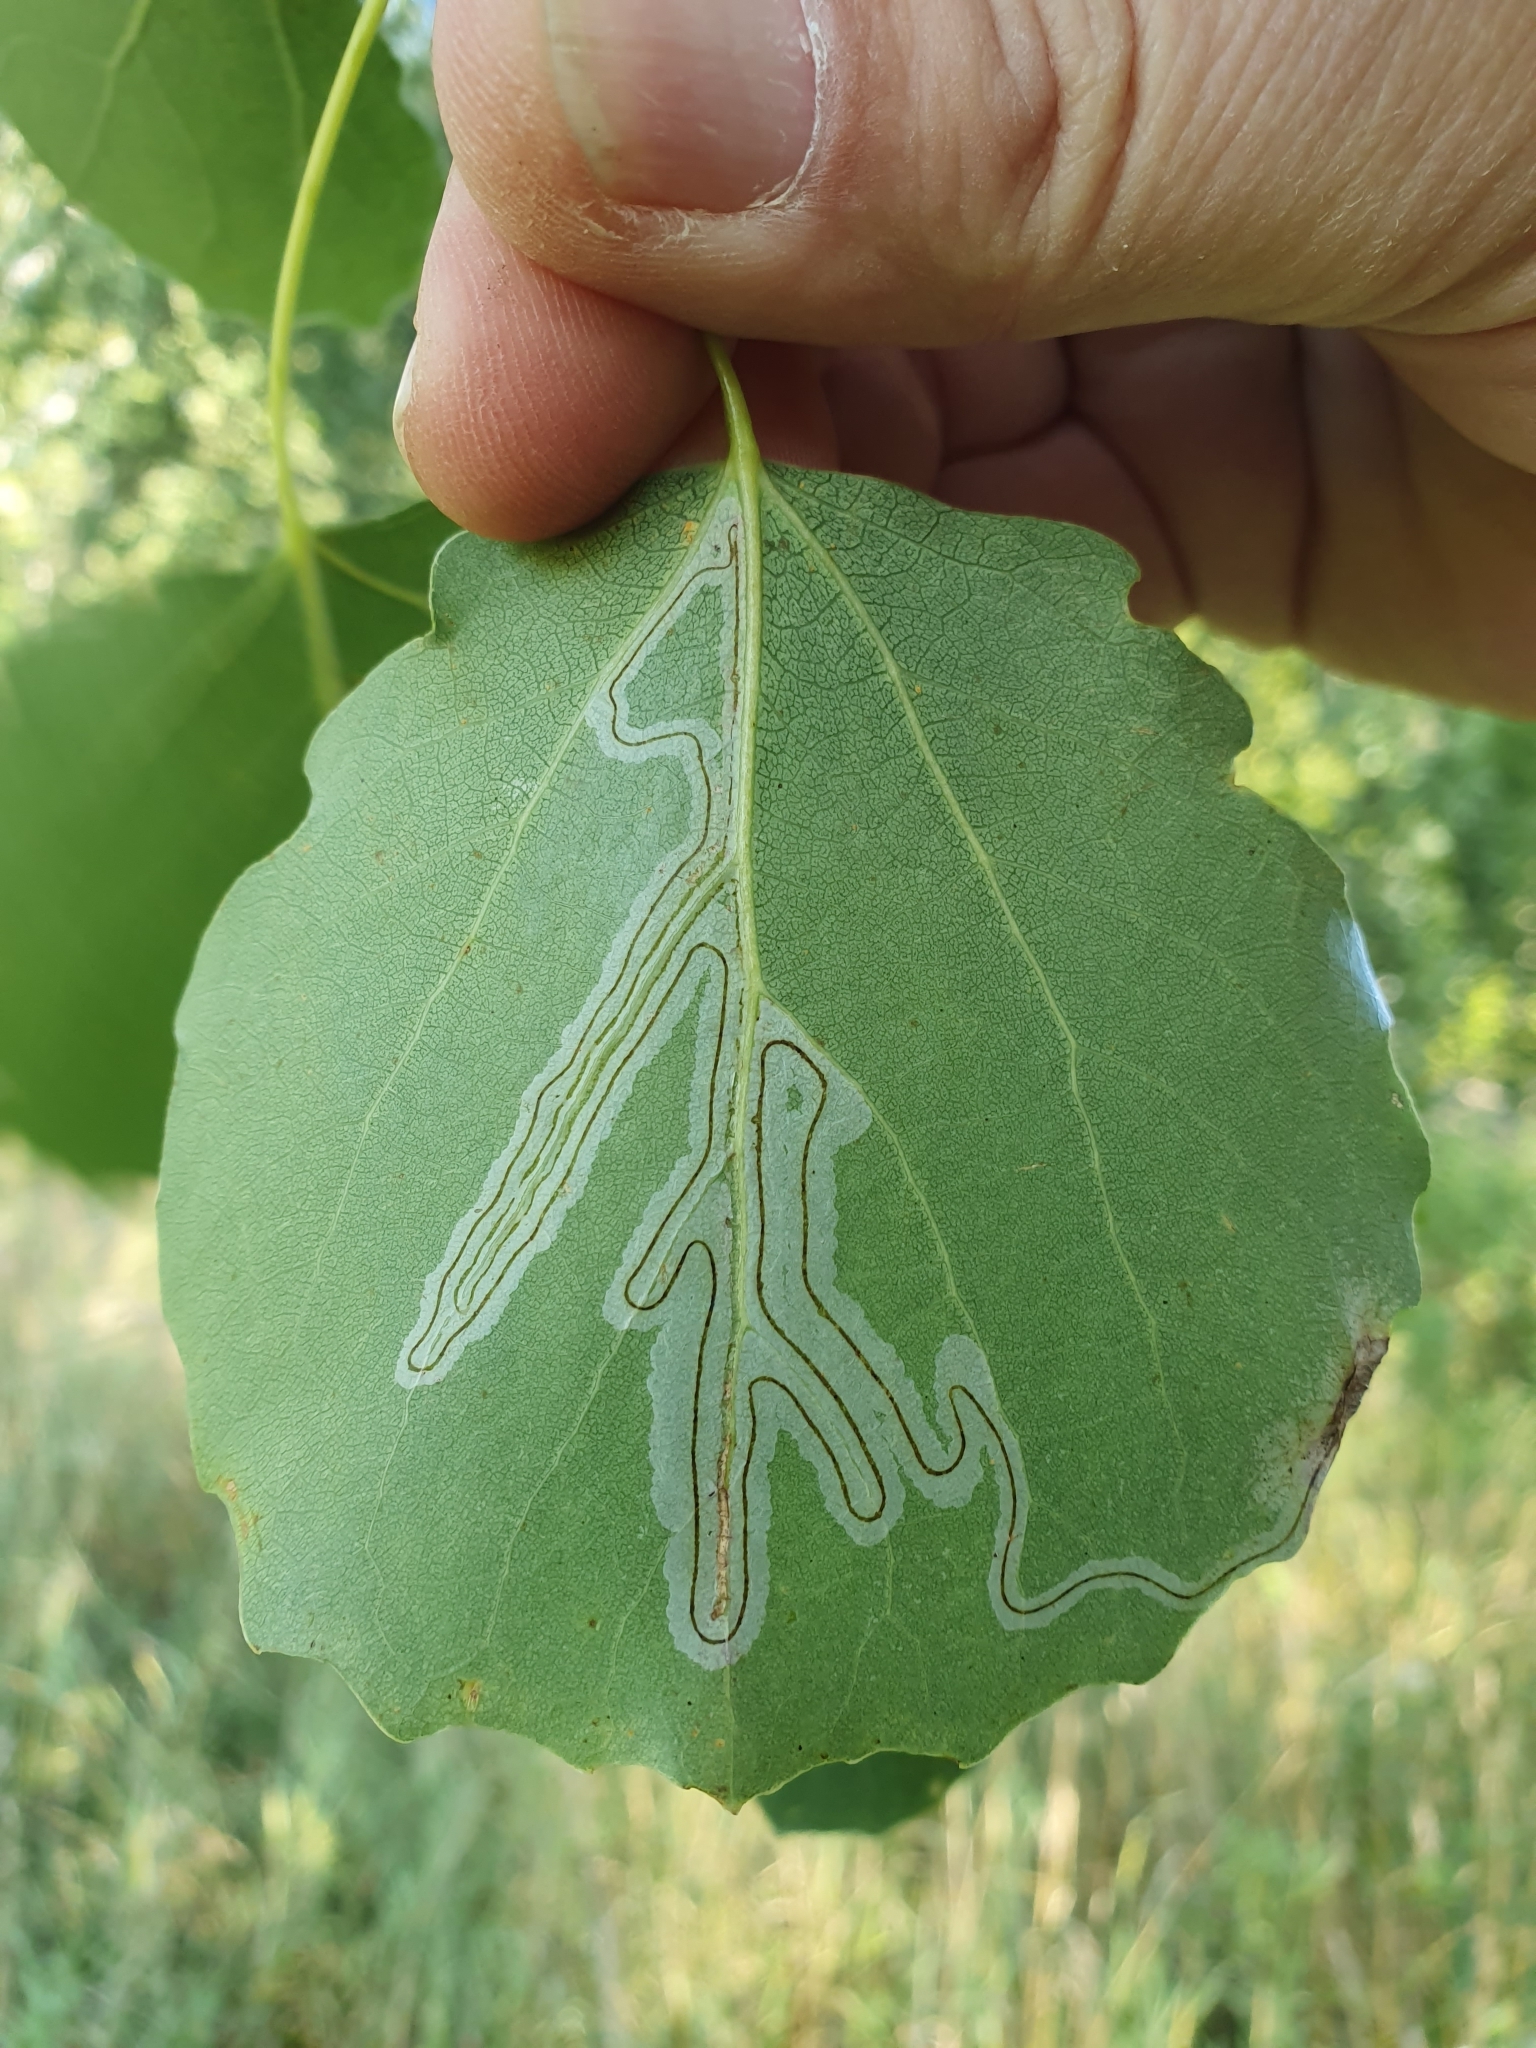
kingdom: Animalia
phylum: Arthropoda
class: Insecta
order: Lepidoptera
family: Gracillariidae
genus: Phyllocnistis
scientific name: Phyllocnistis labyrinthella
